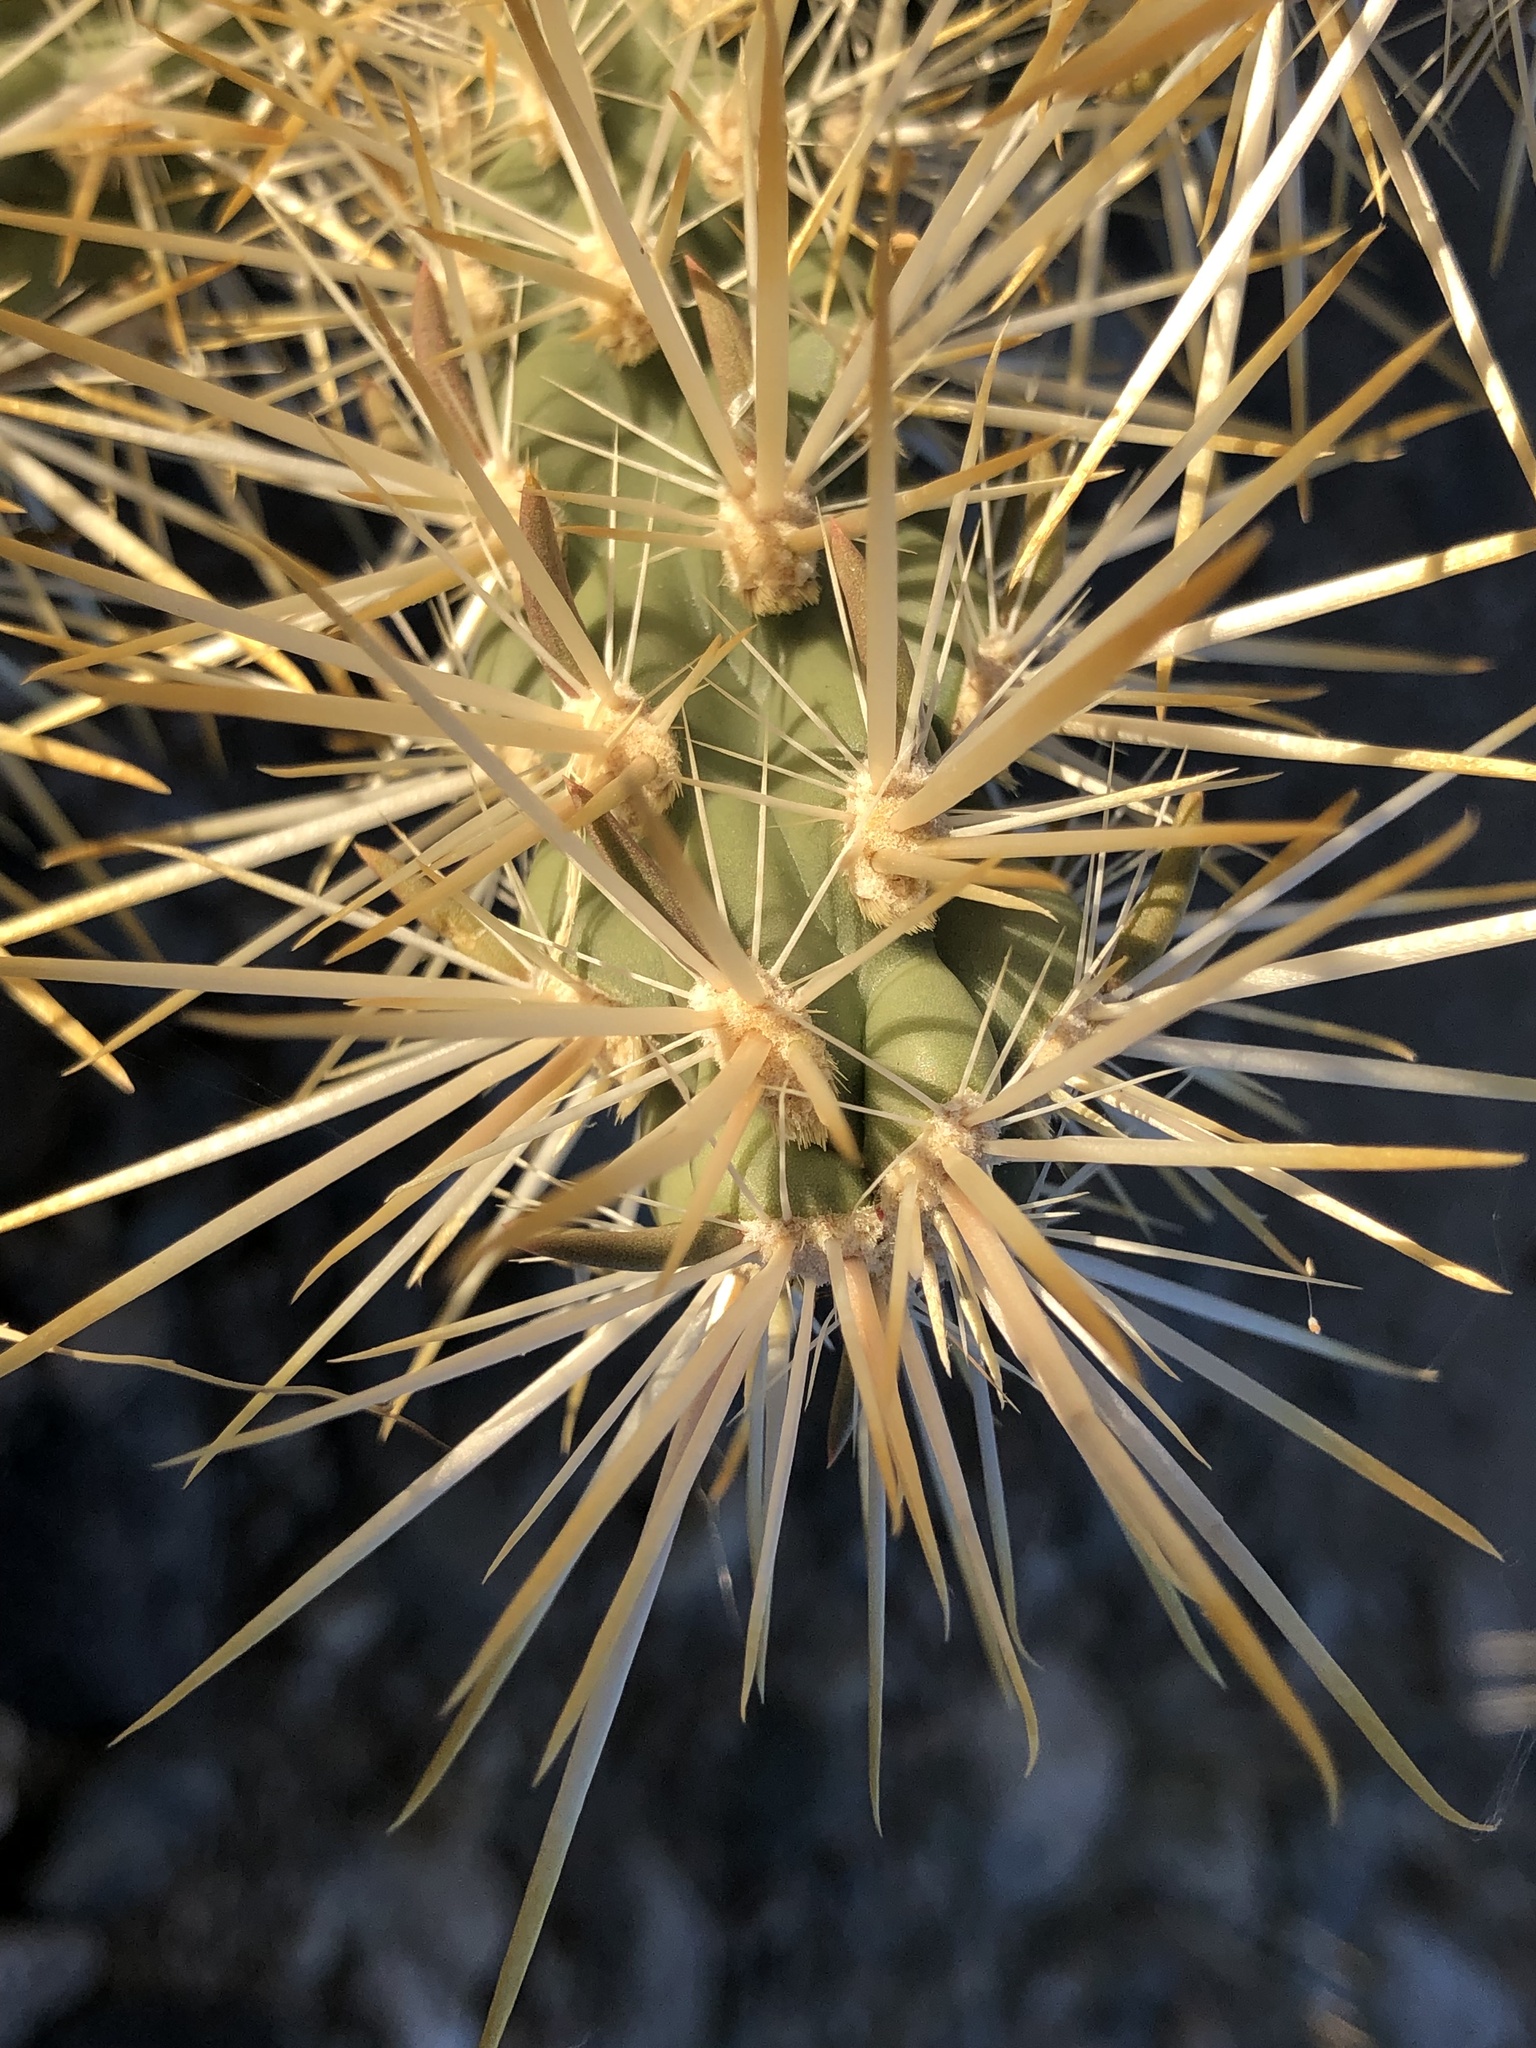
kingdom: Plantae
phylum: Tracheophyta
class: Magnoliopsida
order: Caryophyllales
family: Cactaceae
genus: Cylindropuntia
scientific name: Cylindropuntia echinocarpa
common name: Ground cholla
